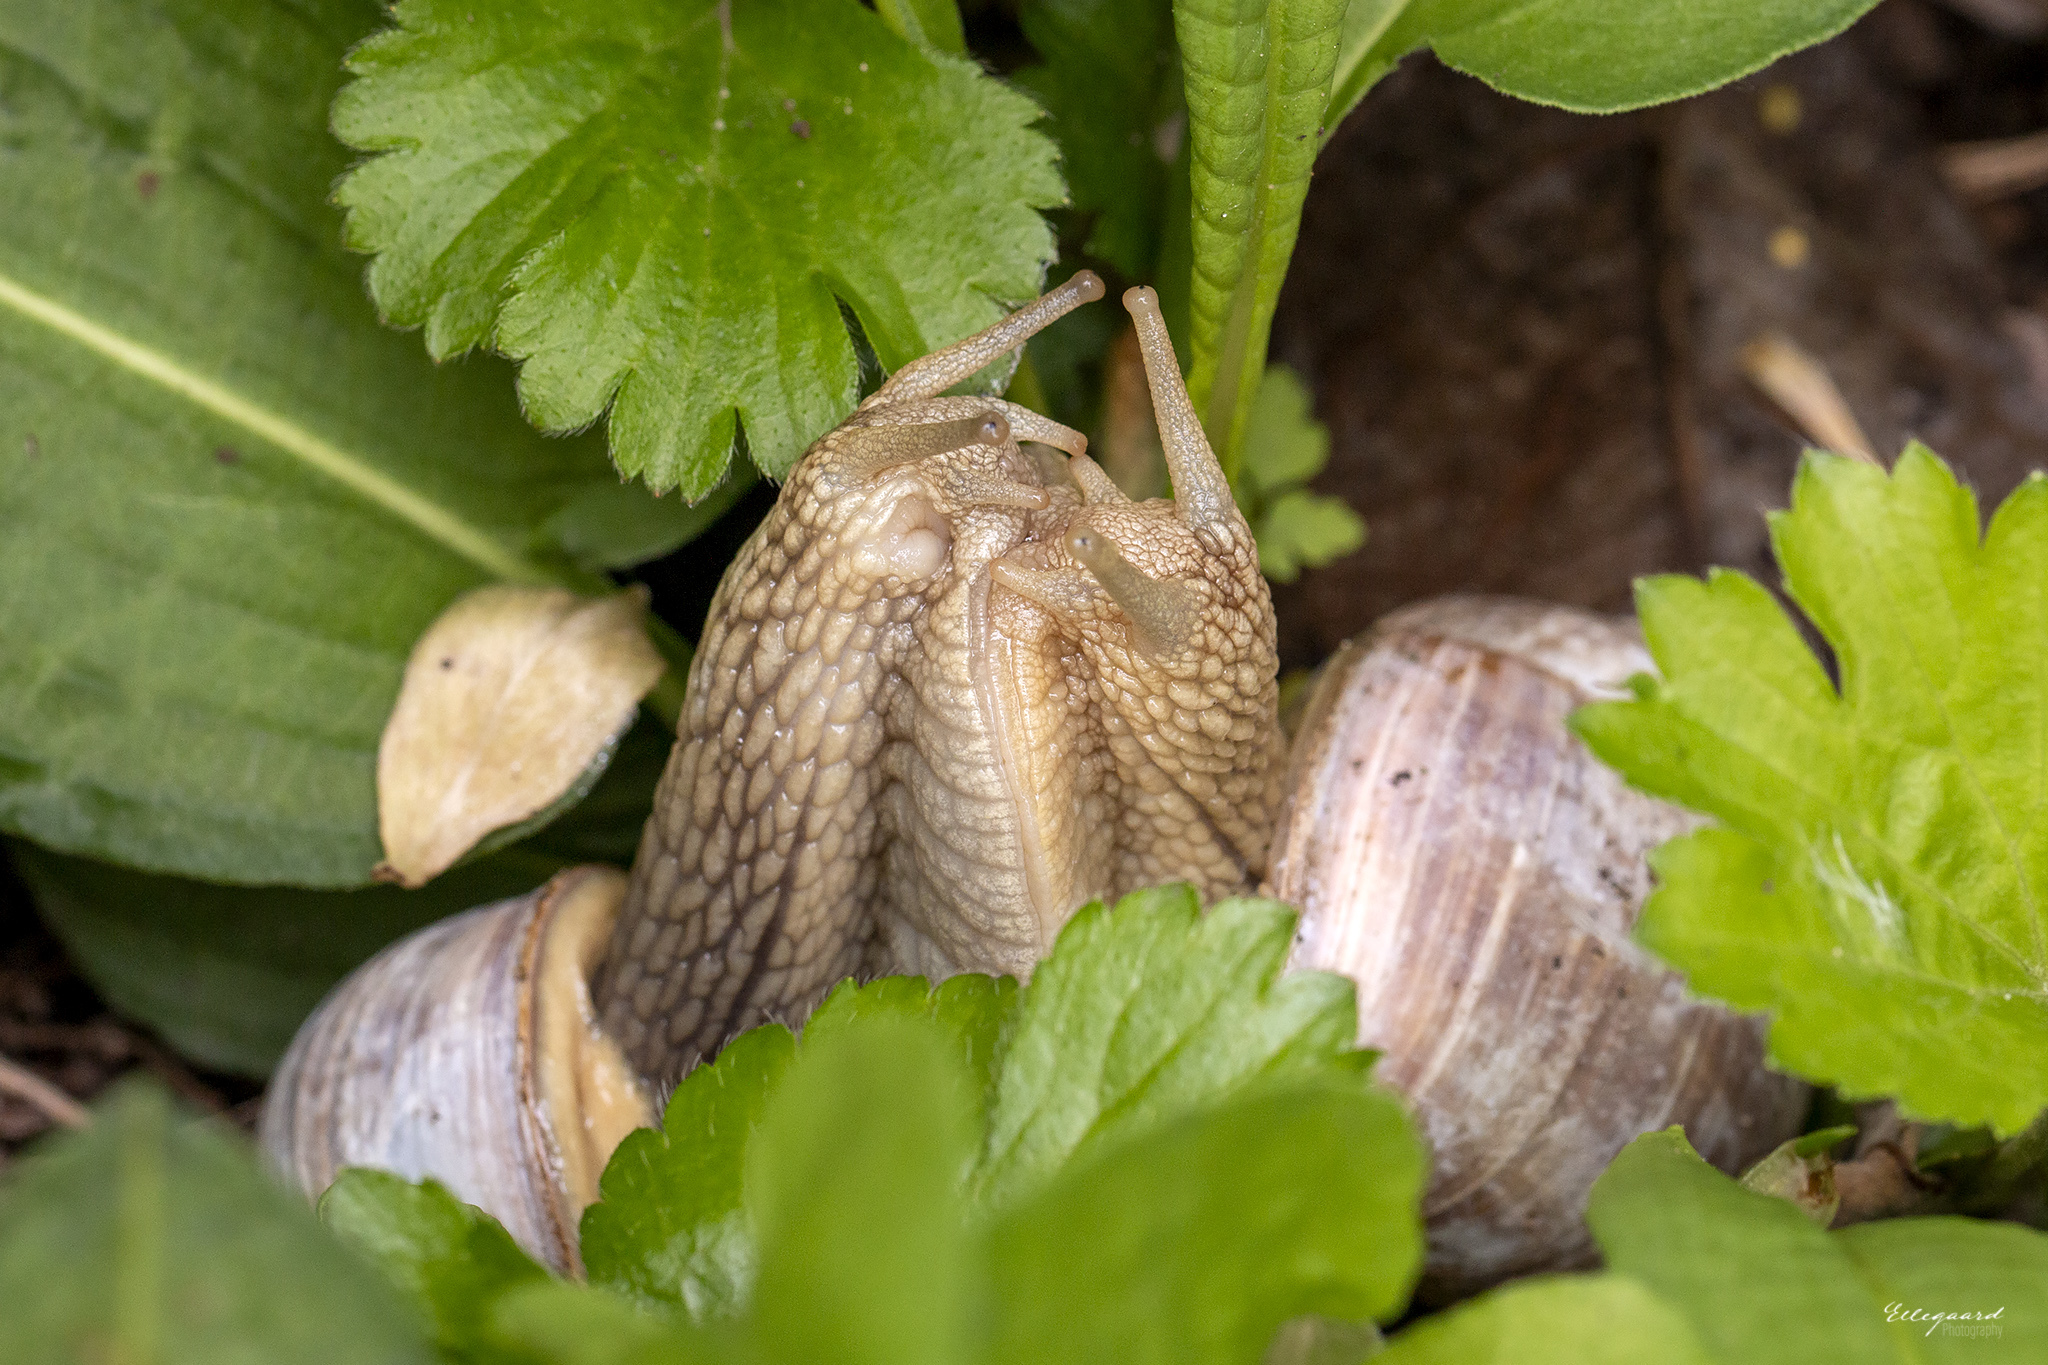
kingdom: Animalia
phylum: Mollusca
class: Gastropoda
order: Stylommatophora
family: Helicidae
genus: Helix
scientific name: Helix pomatia
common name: Roman snail
